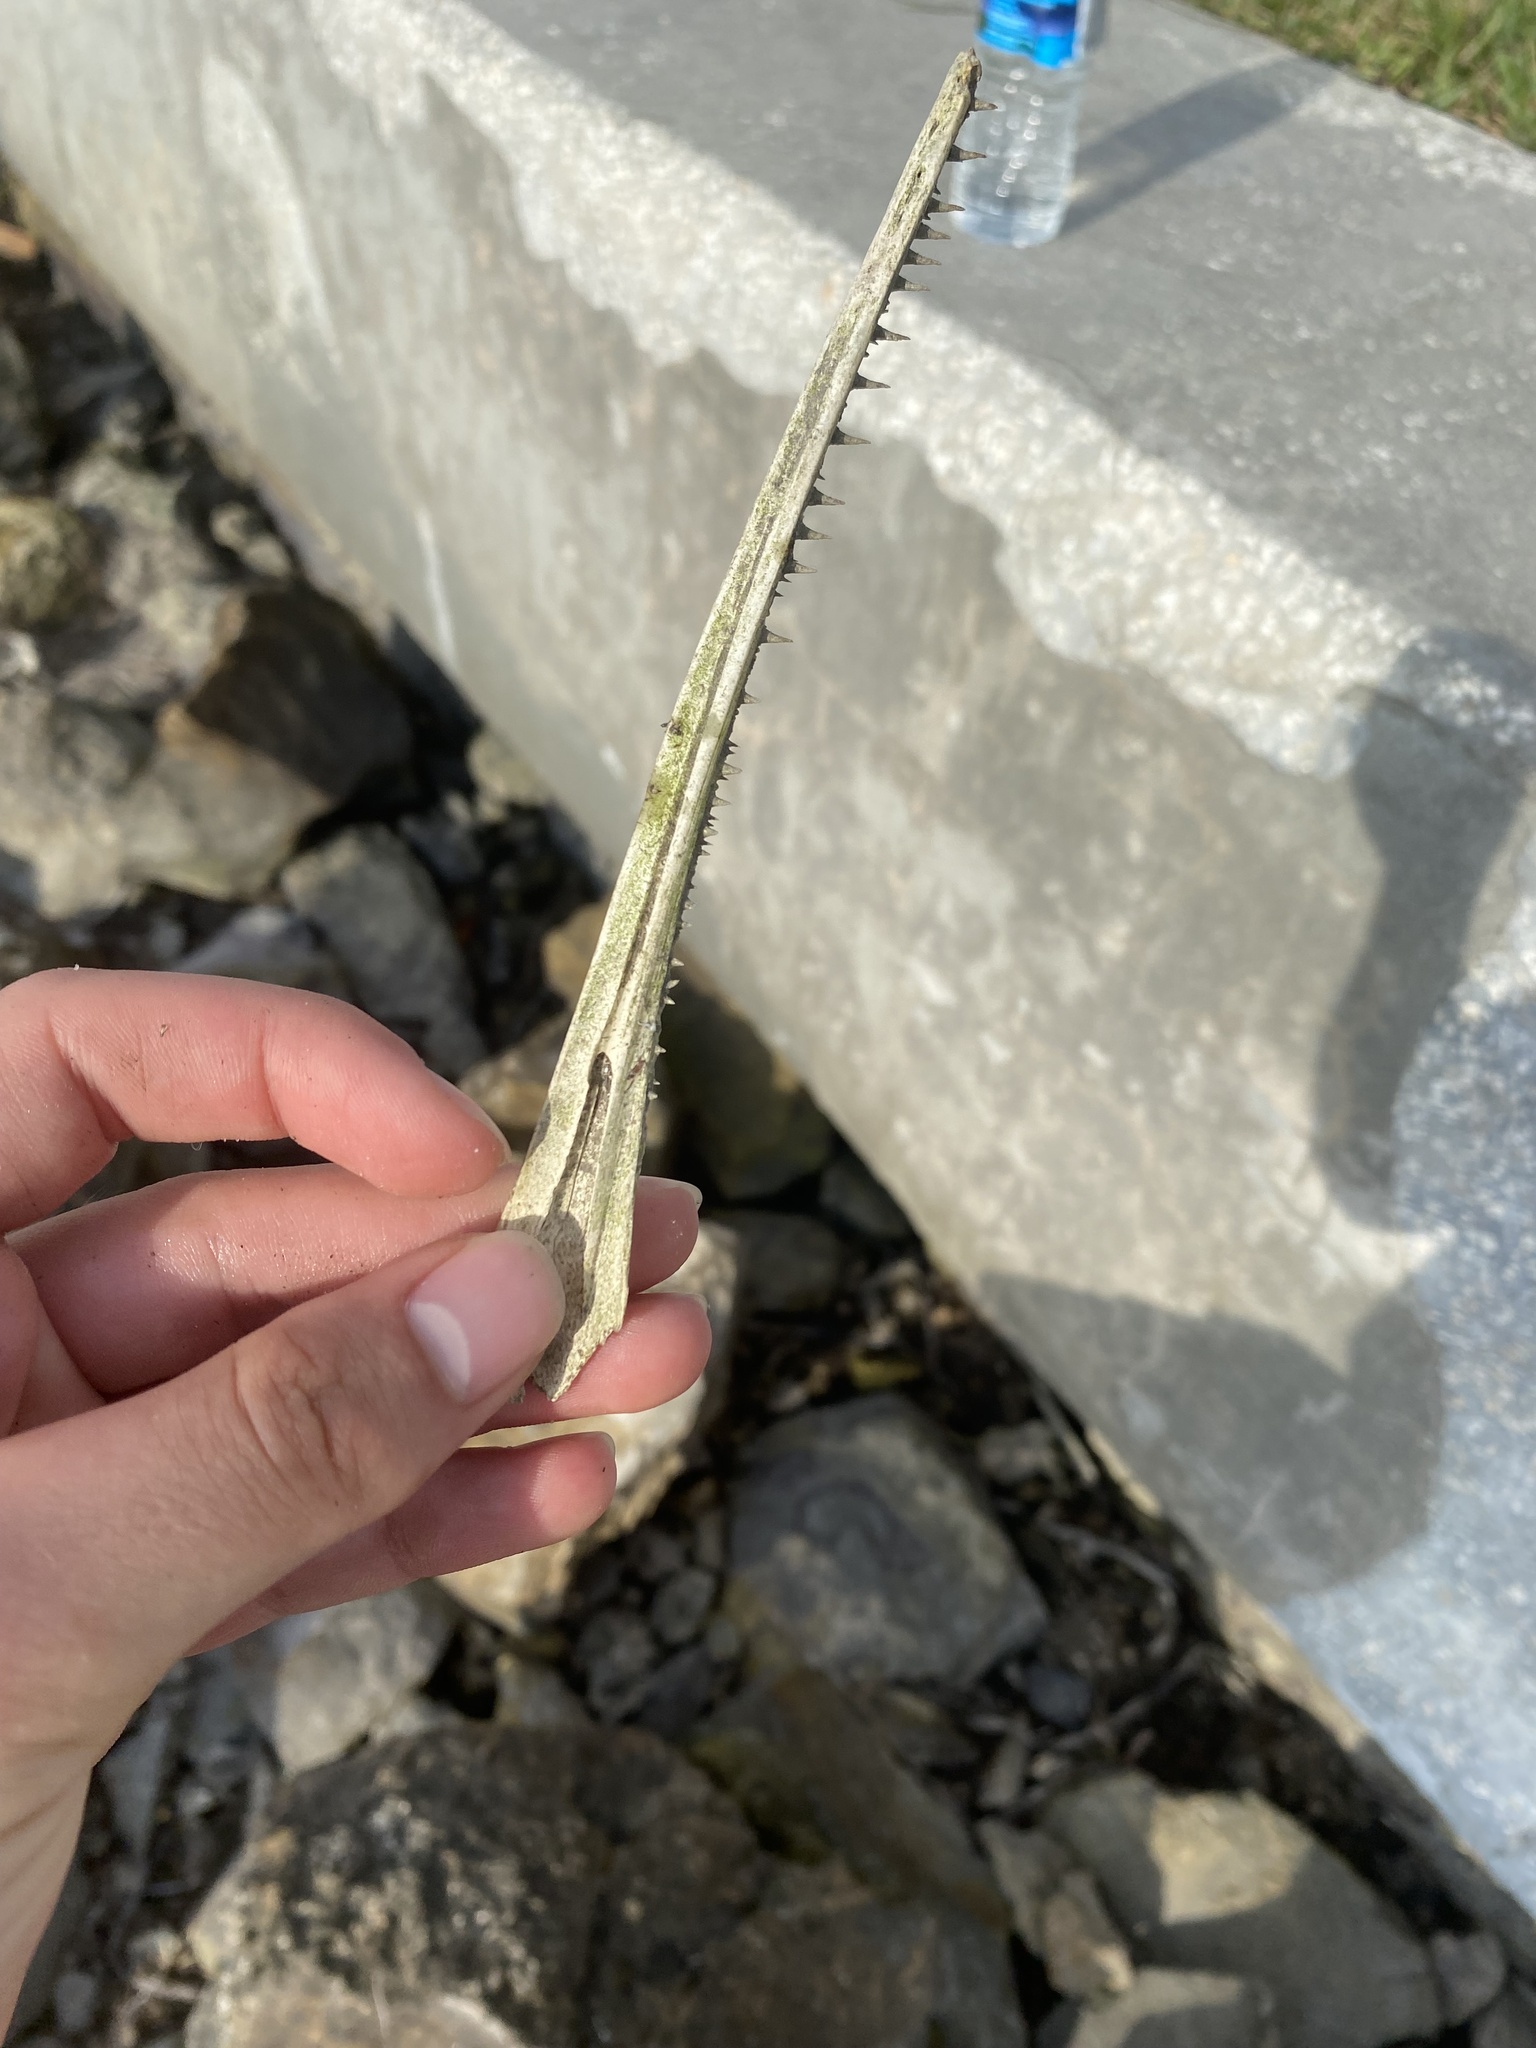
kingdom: Animalia
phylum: Chordata
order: Lepisosteiformes
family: Lepisosteidae
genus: Lepisosteus
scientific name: Lepisosteus platyrhincus
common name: Florida gar
